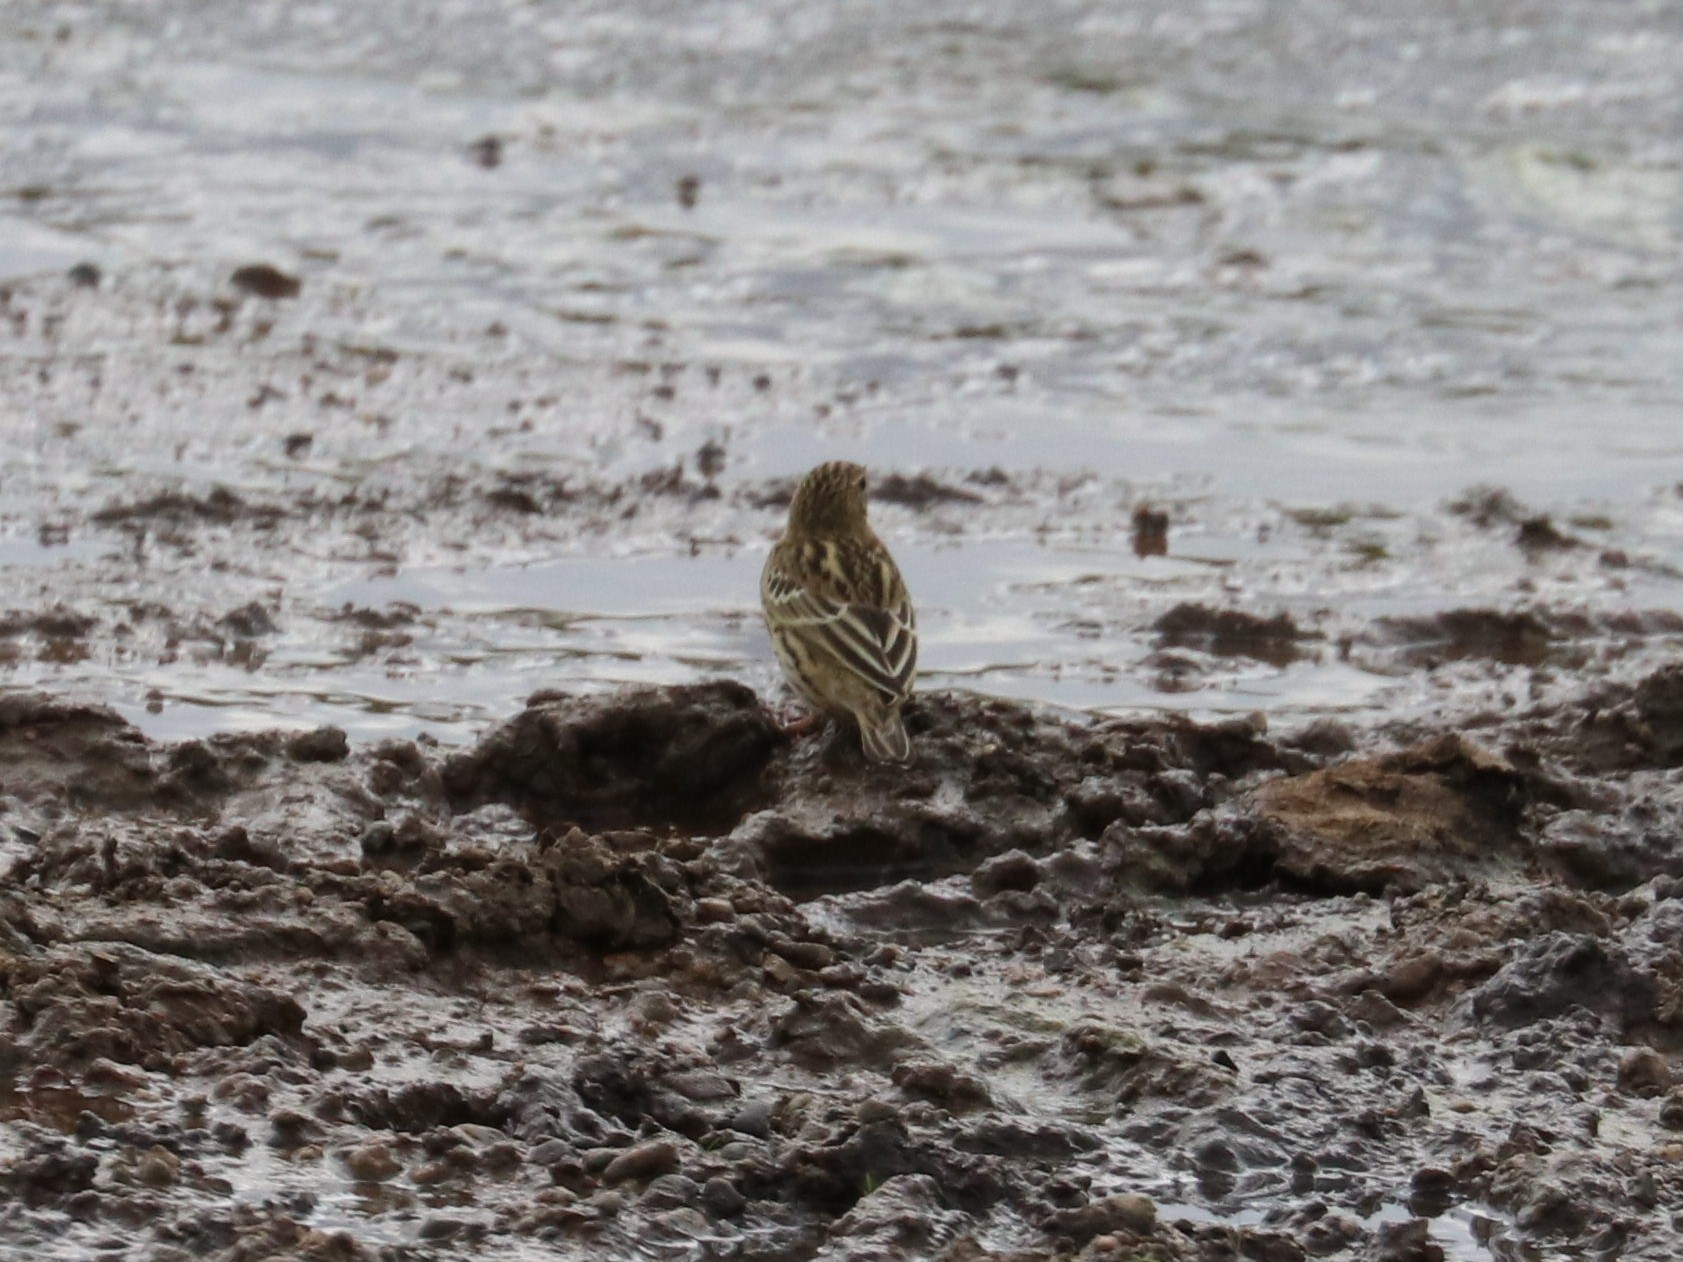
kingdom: Animalia
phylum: Chordata
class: Aves
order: Passeriformes
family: Motacillidae
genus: Anthus
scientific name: Anthus cervinus
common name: Red-throated pipit
